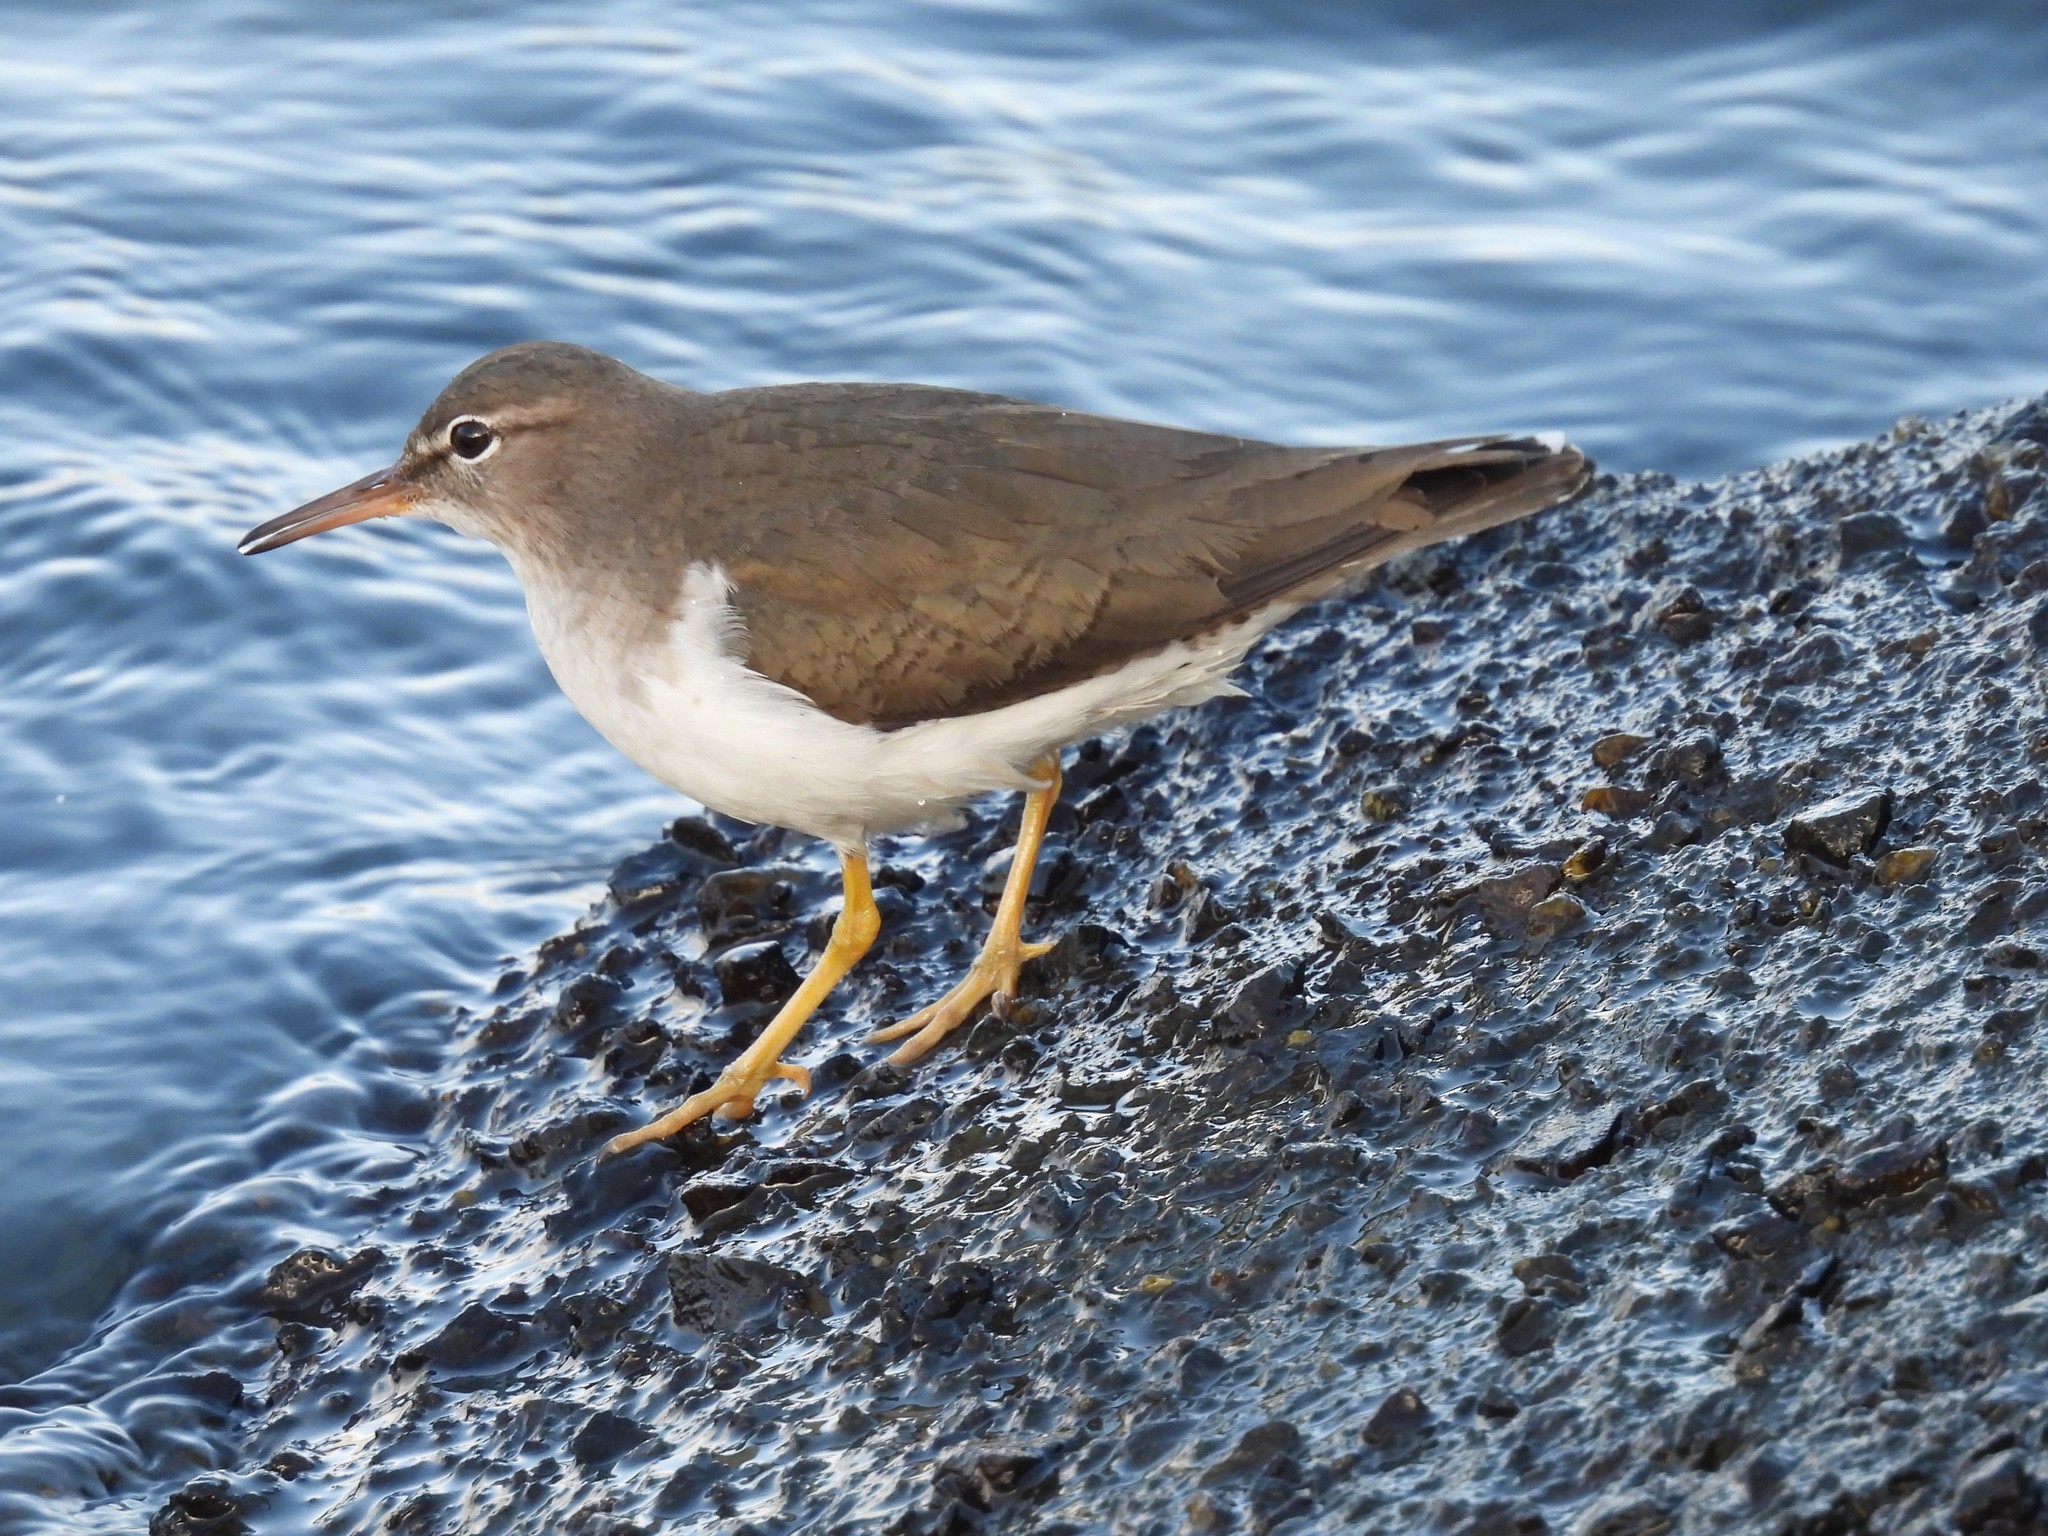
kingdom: Animalia
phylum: Chordata
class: Aves
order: Charadriiformes
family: Scolopacidae
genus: Actitis
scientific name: Actitis macularius
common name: Spotted sandpiper
